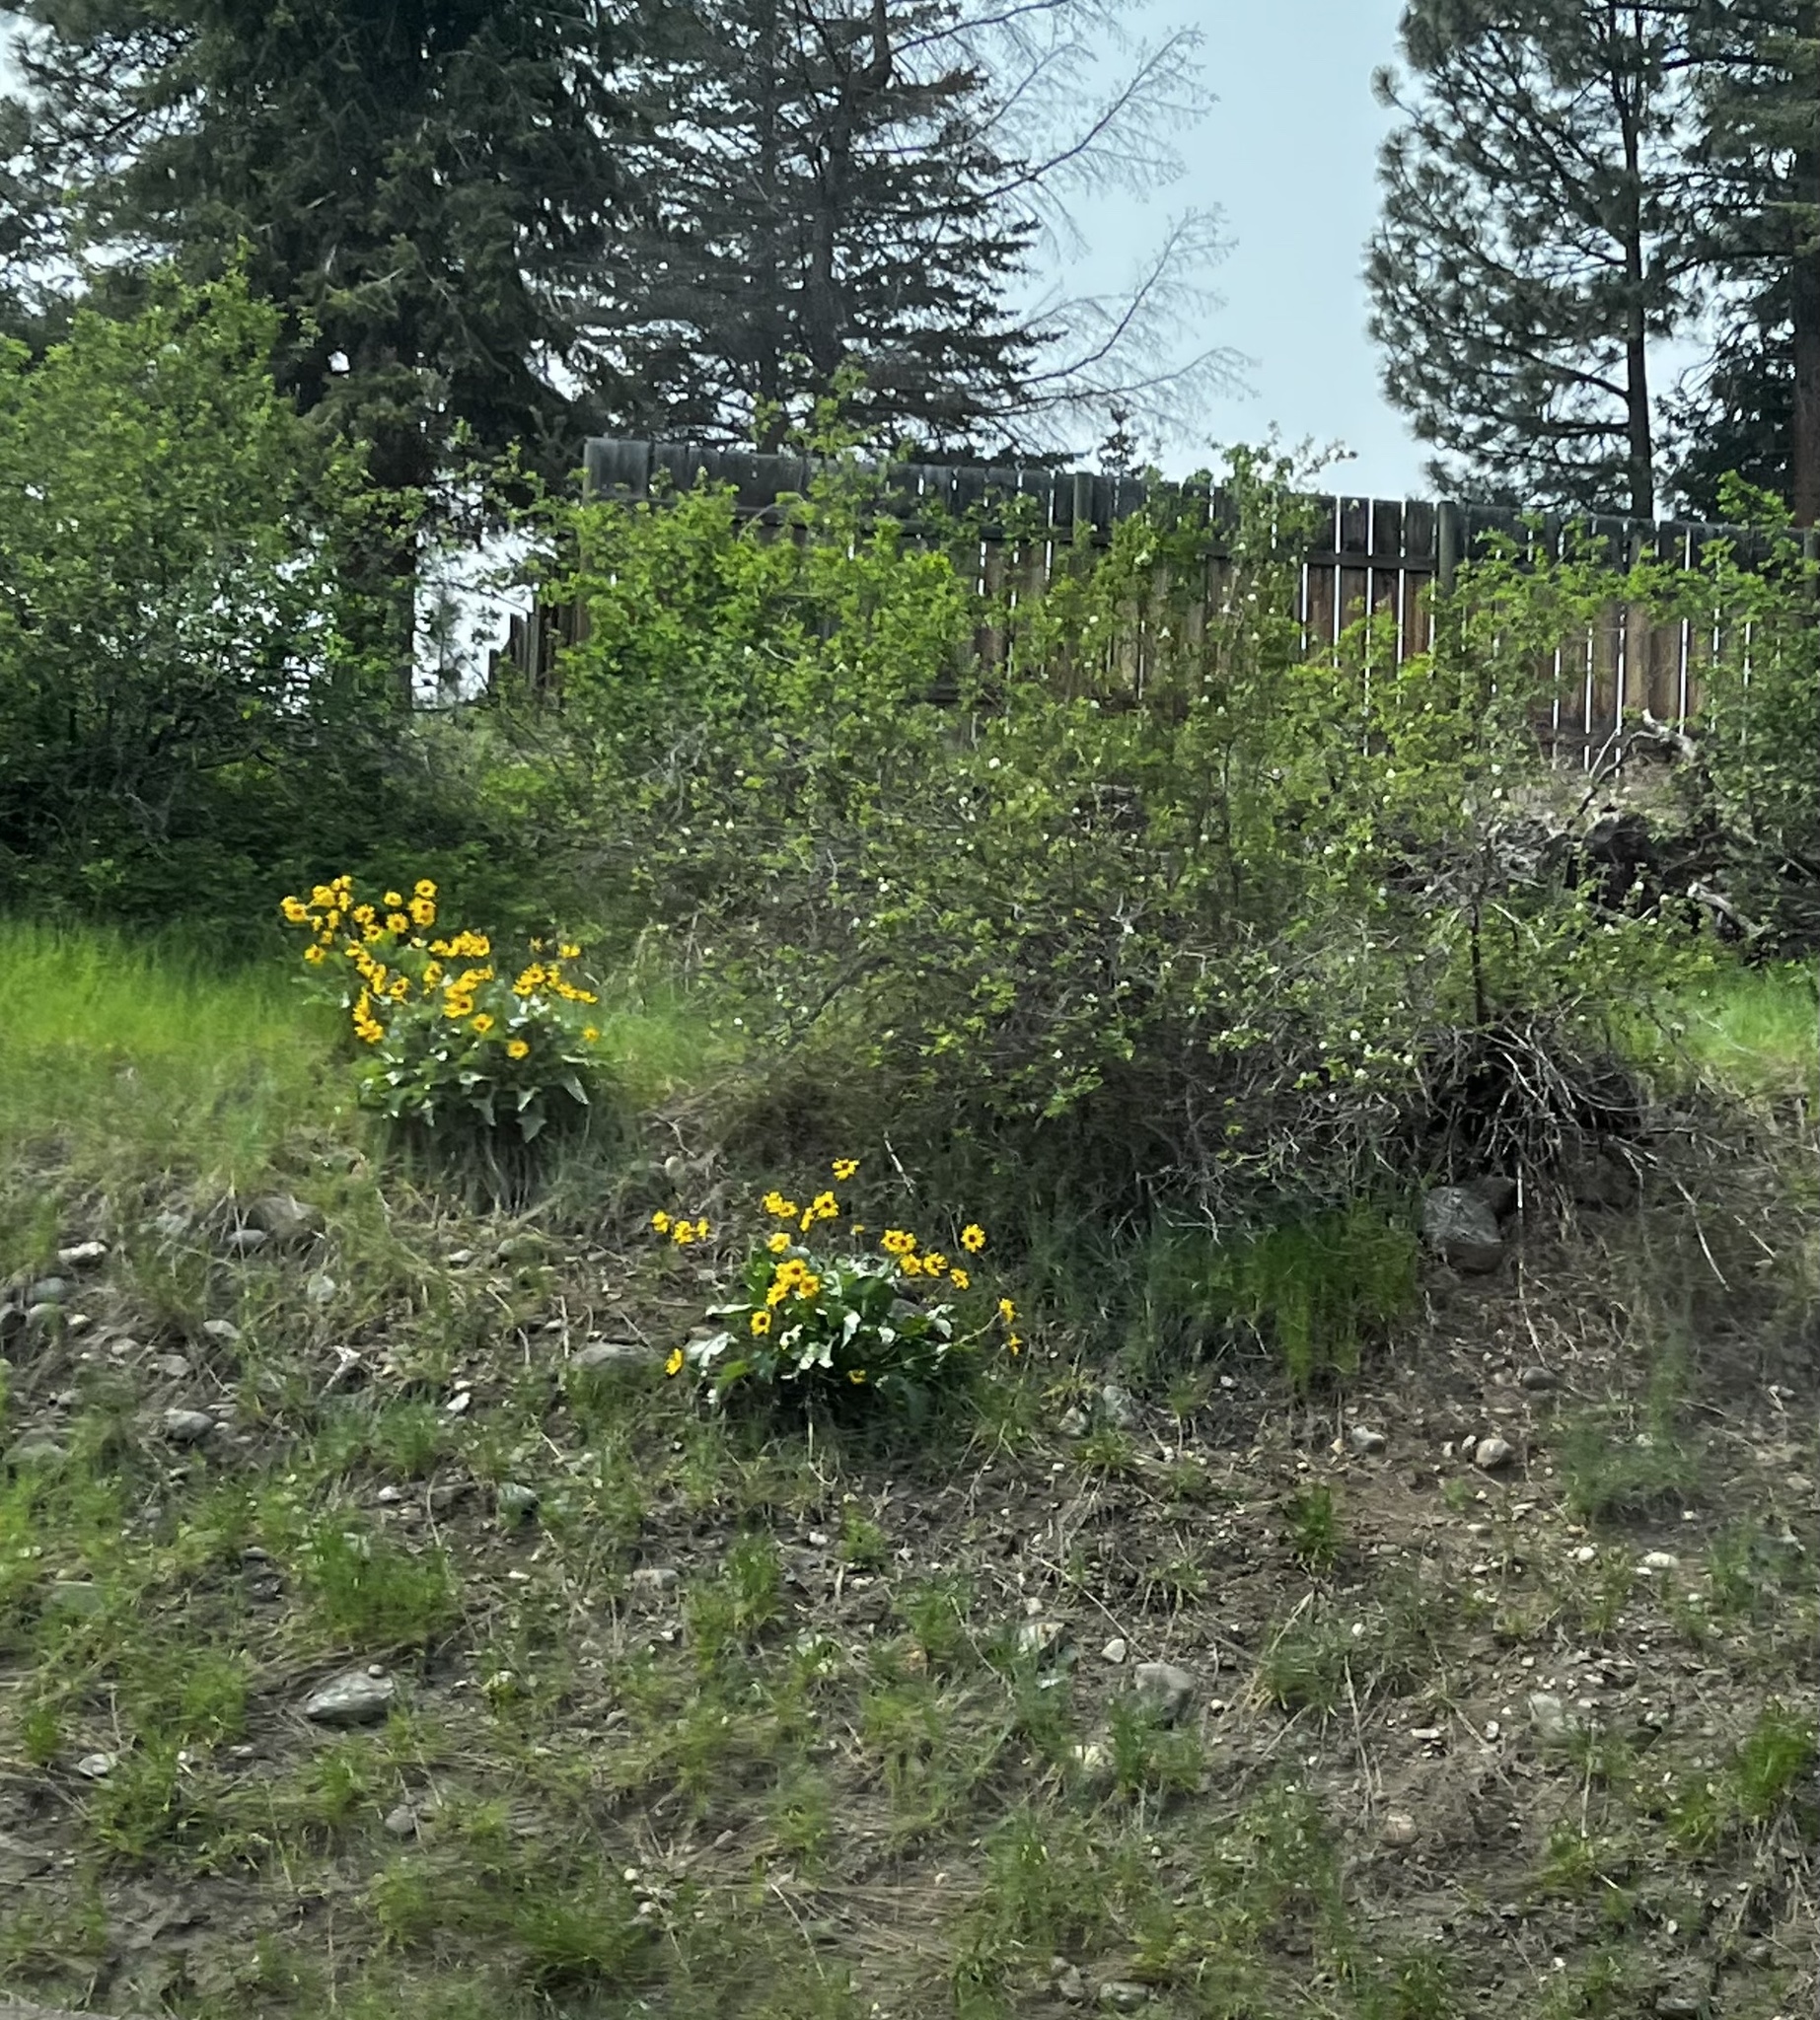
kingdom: Plantae
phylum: Tracheophyta
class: Magnoliopsida
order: Asterales
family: Asteraceae
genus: Wyethia
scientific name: Wyethia sagittata
